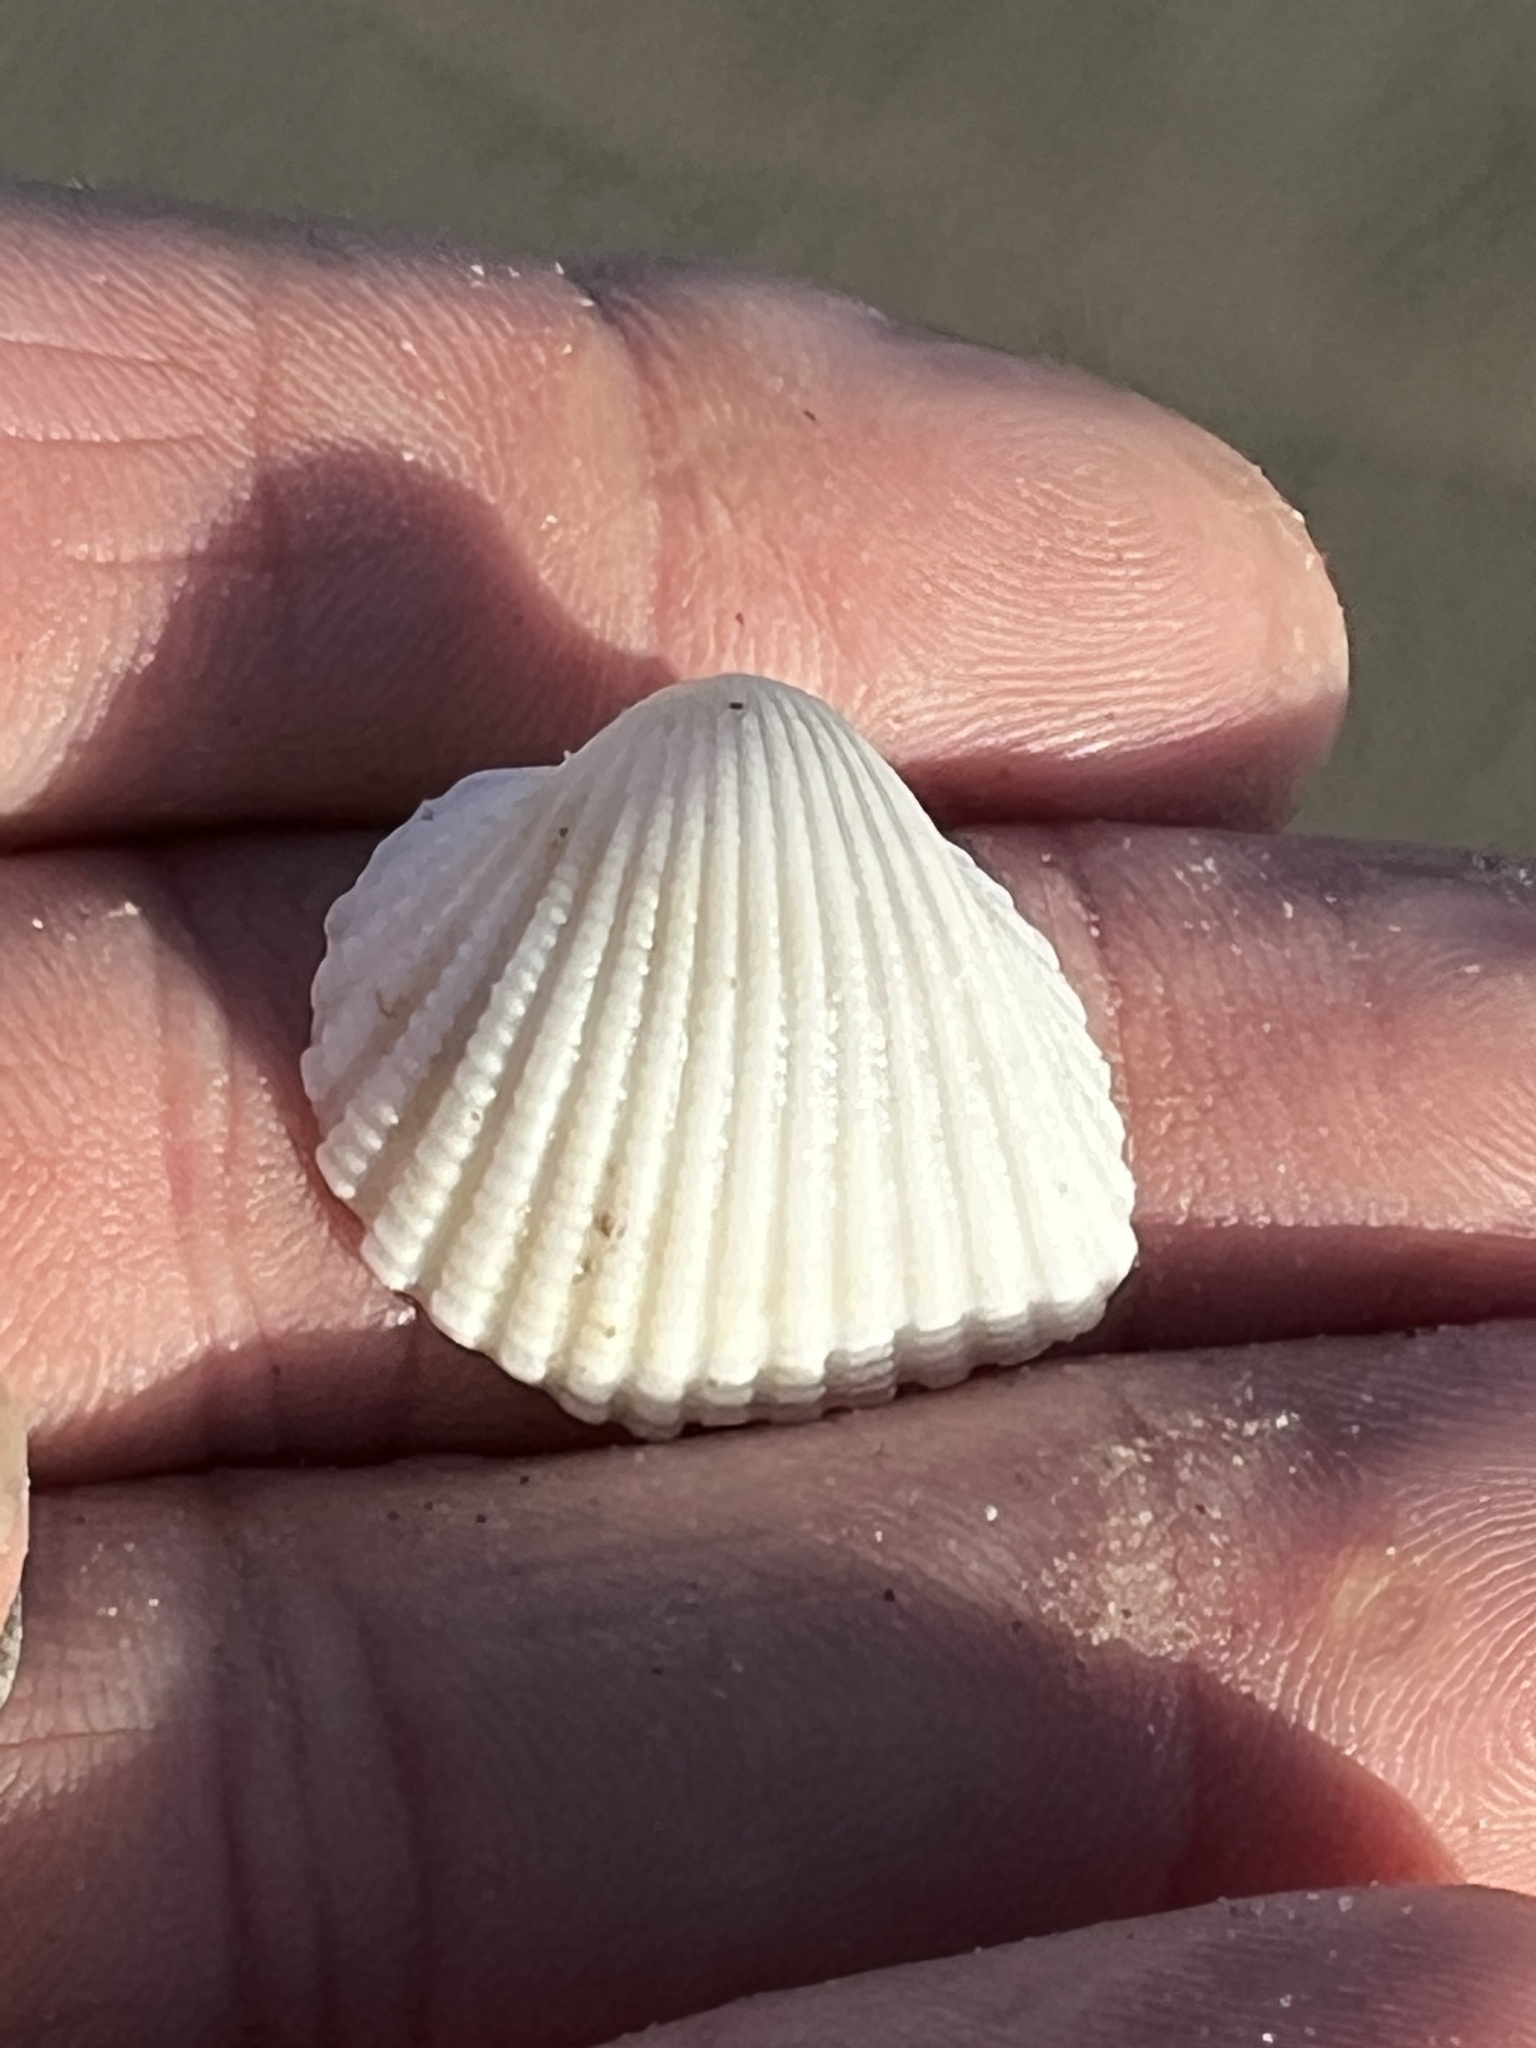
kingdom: Animalia
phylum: Mollusca
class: Bivalvia
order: Arcida
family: Arcidae
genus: Anadara
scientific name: Anadara brasiliana
